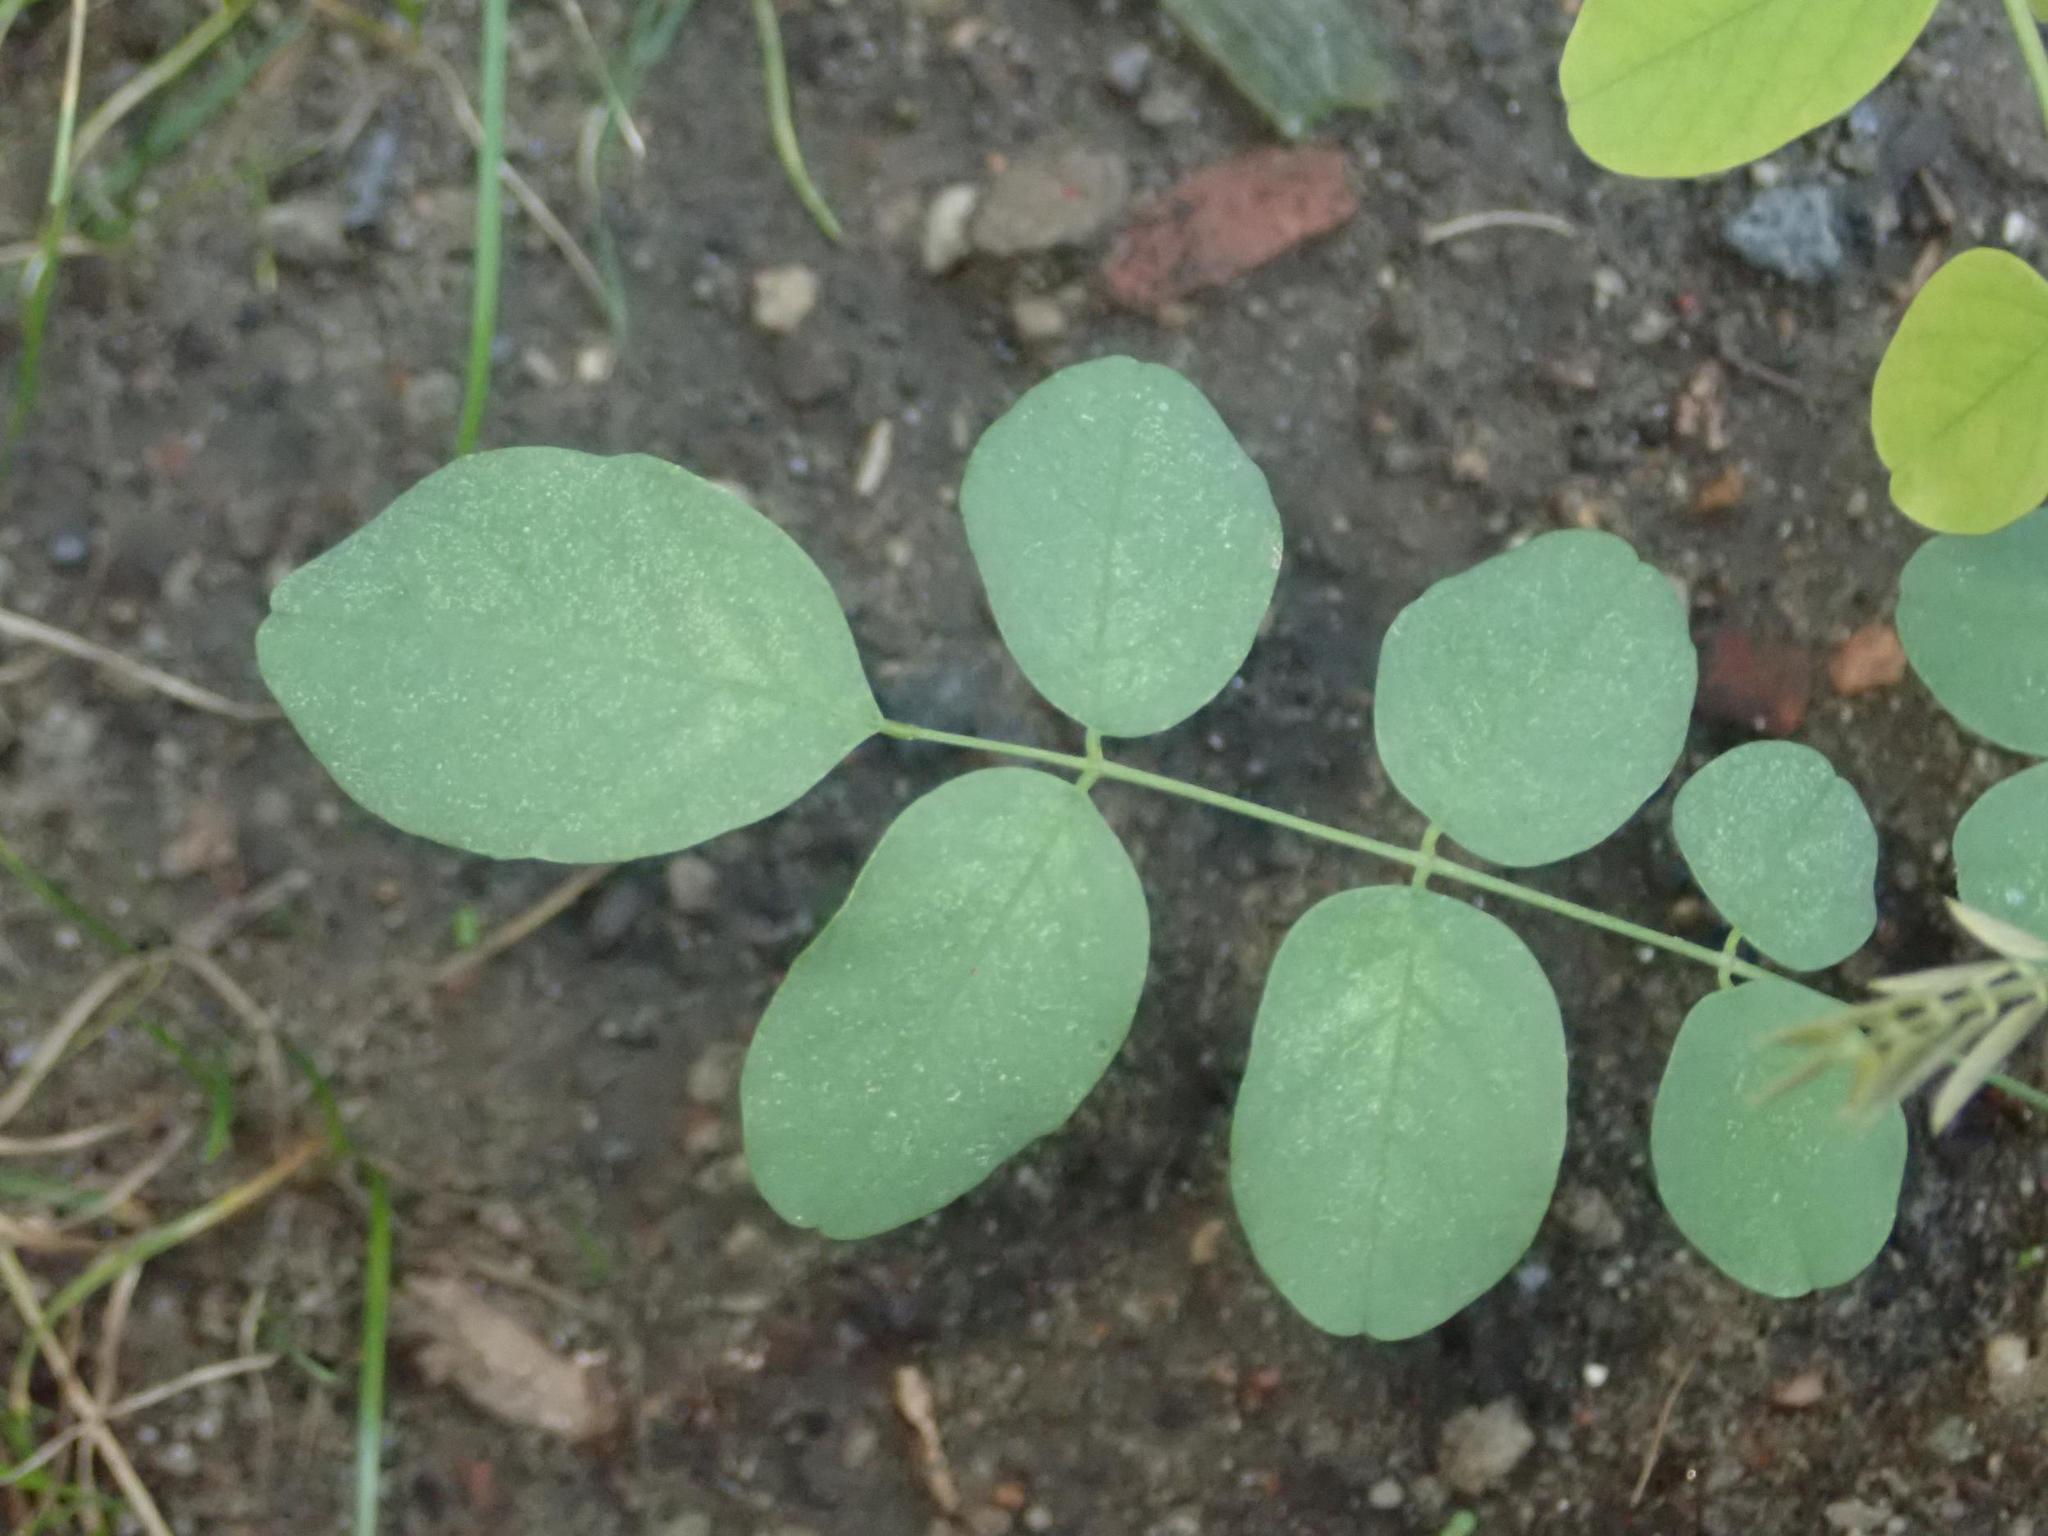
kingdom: Plantae
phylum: Tracheophyta
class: Magnoliopsida
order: Fabales
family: Fabaceae
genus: Robinia
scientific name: Robinia pseudoacacia
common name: Black locust
